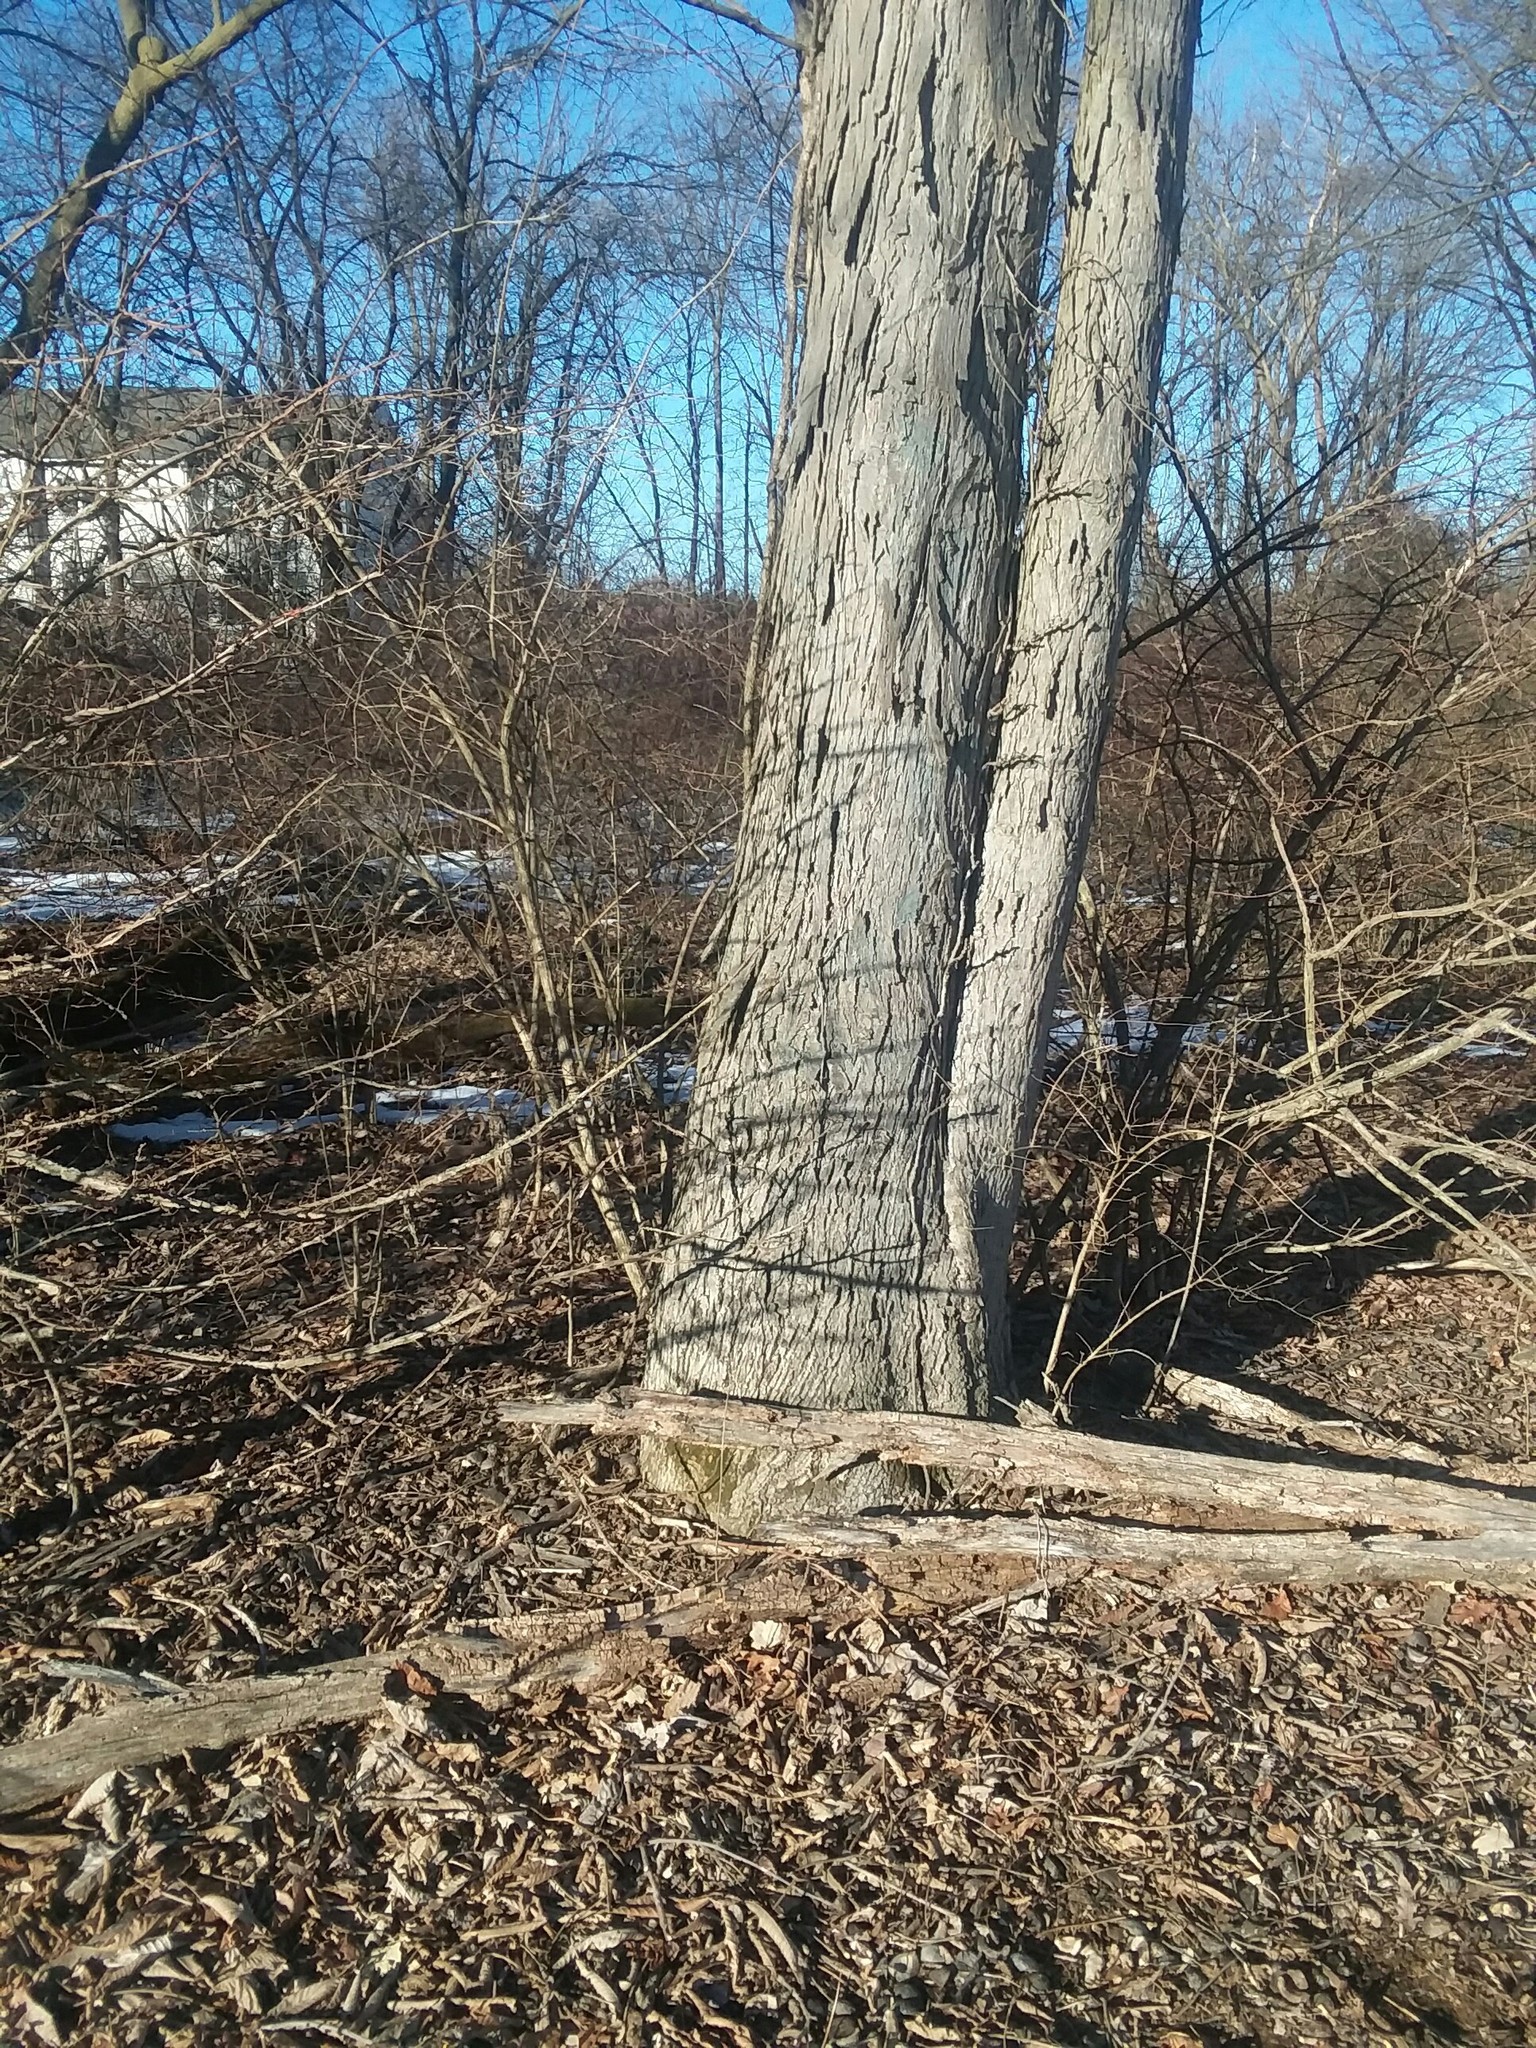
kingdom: Plantae
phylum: Tracheophyta
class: Magnoliopsida
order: Fagales
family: Juglandaceae
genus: Carya
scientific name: Carya ovata
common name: Shagbark hickory
